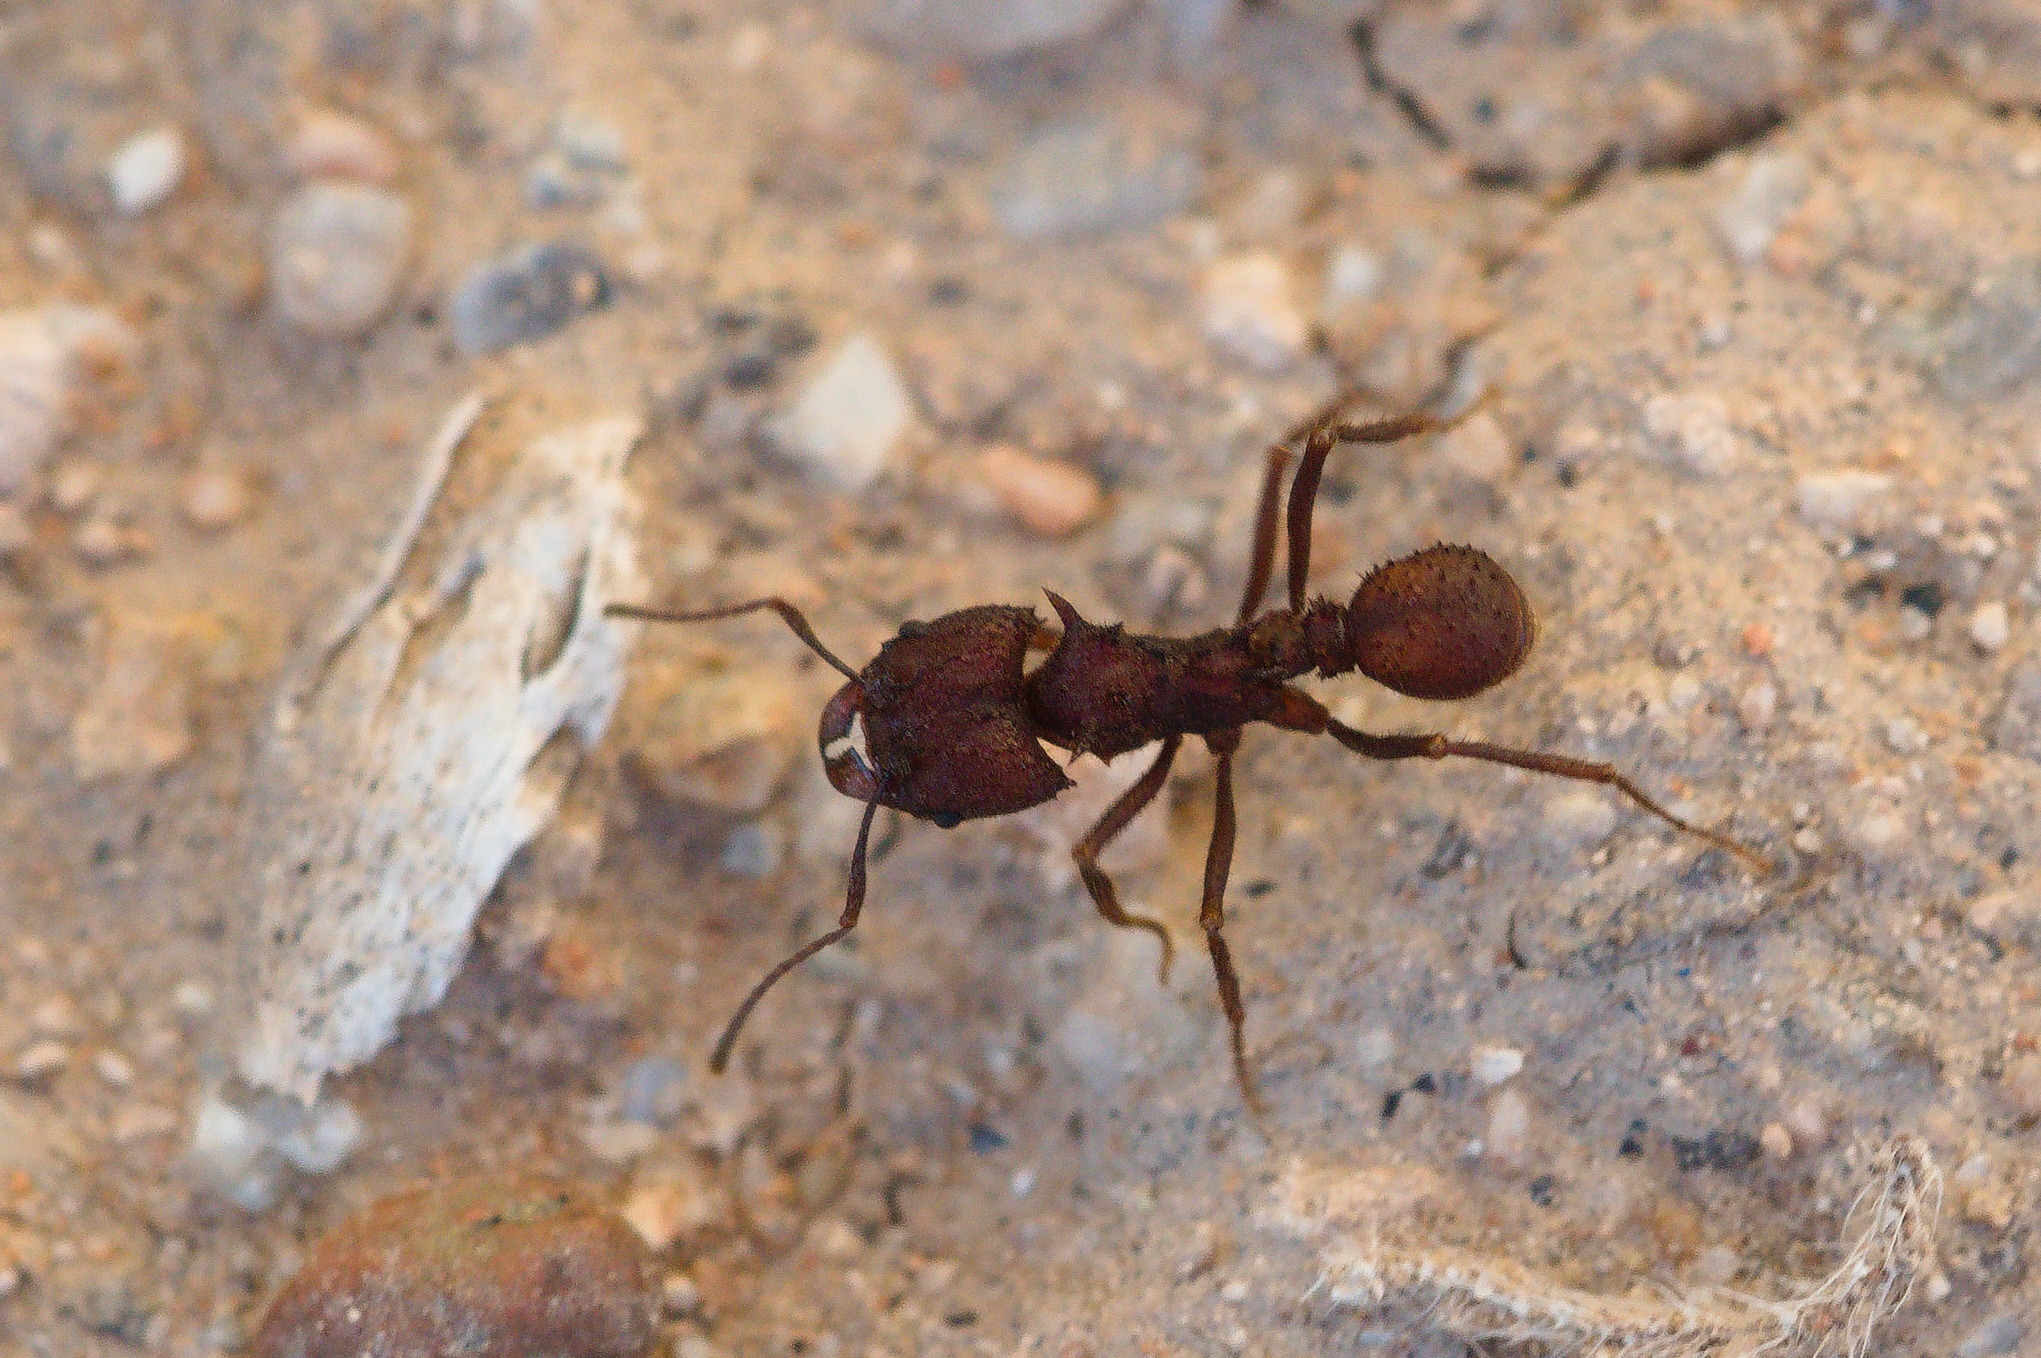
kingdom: Animalia
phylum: Arthropoda
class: Insecta
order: Hymenoptera
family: Formicidae
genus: Acromyrmex
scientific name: Acromyrmex versicolor
